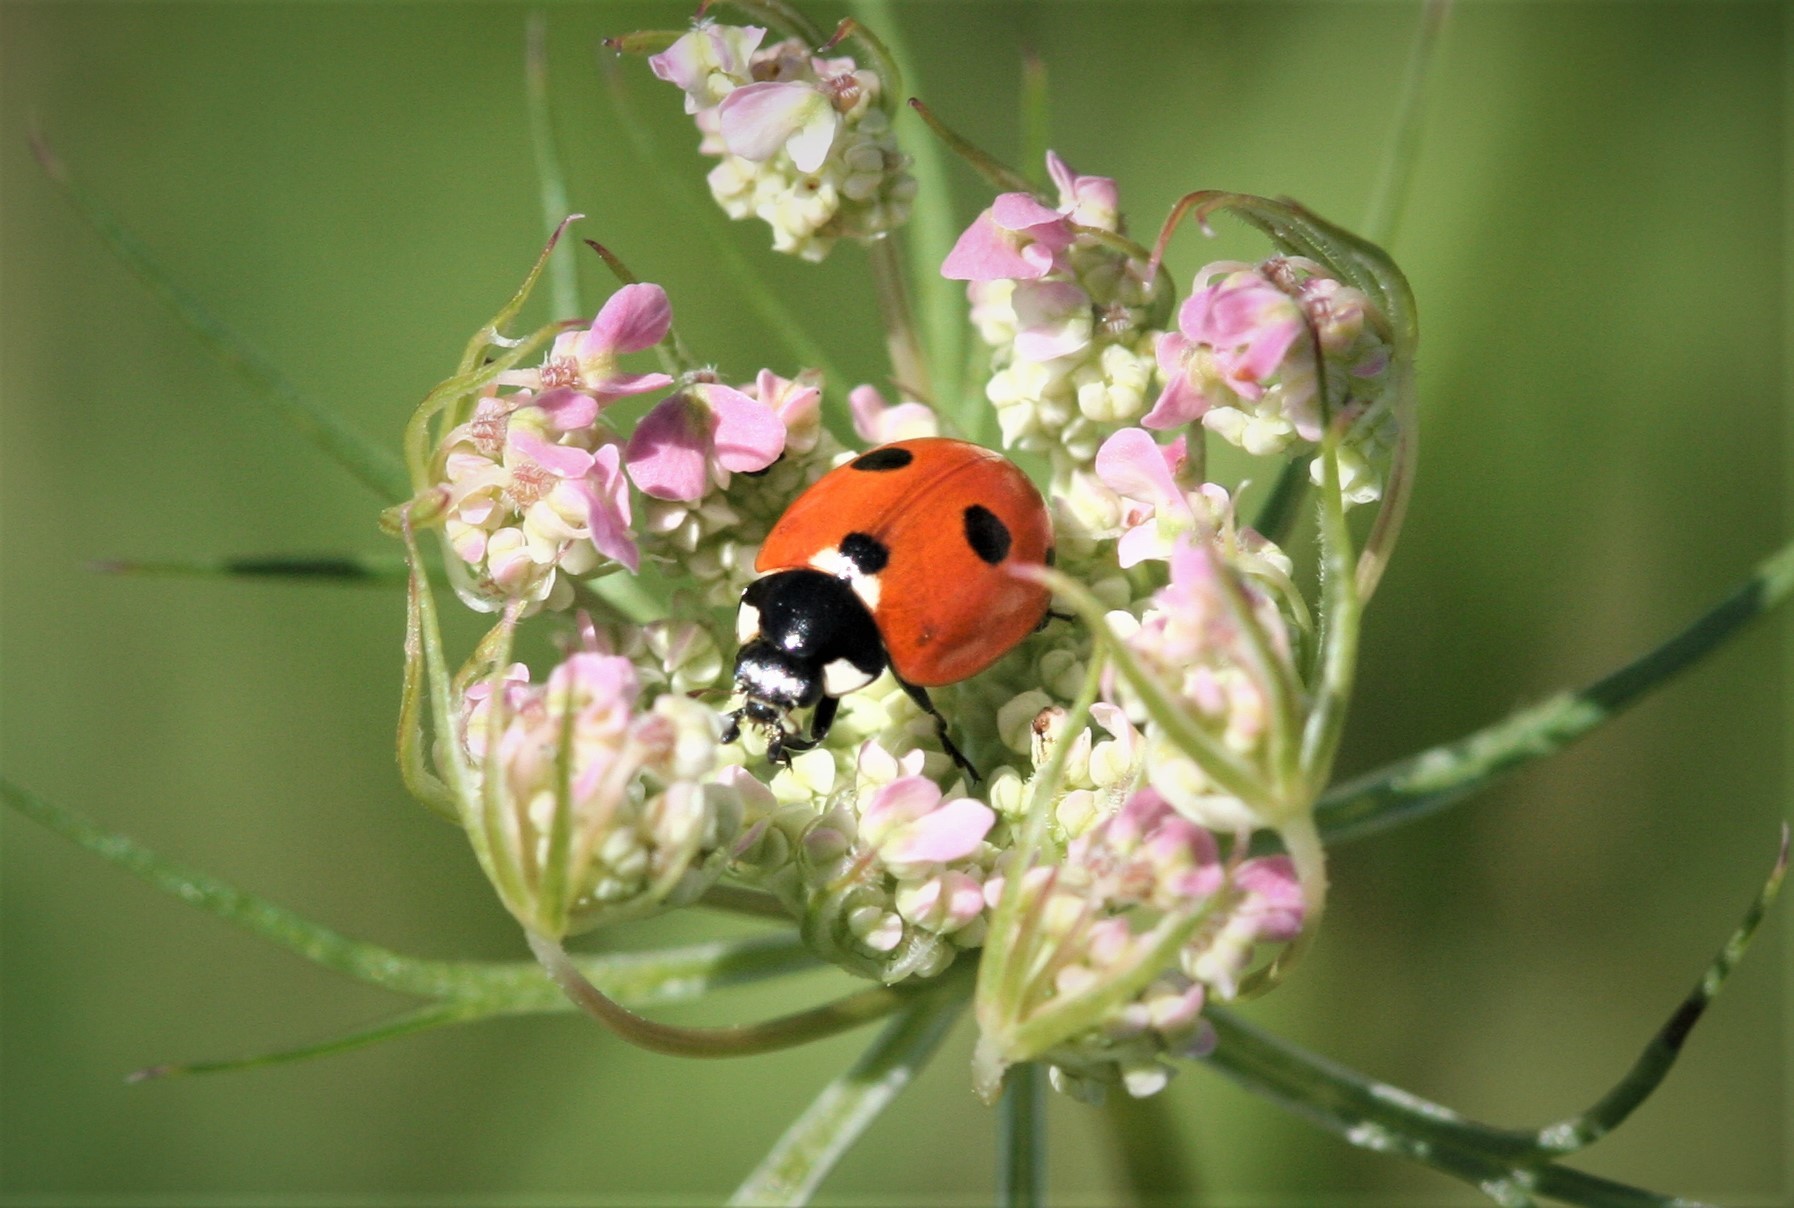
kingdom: Animalia
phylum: Arthropoda
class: Insecta
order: Coleoptera
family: Coccinellidae
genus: Coccinella
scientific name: Coccinella quinquepunctata
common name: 5-spot ladybird
